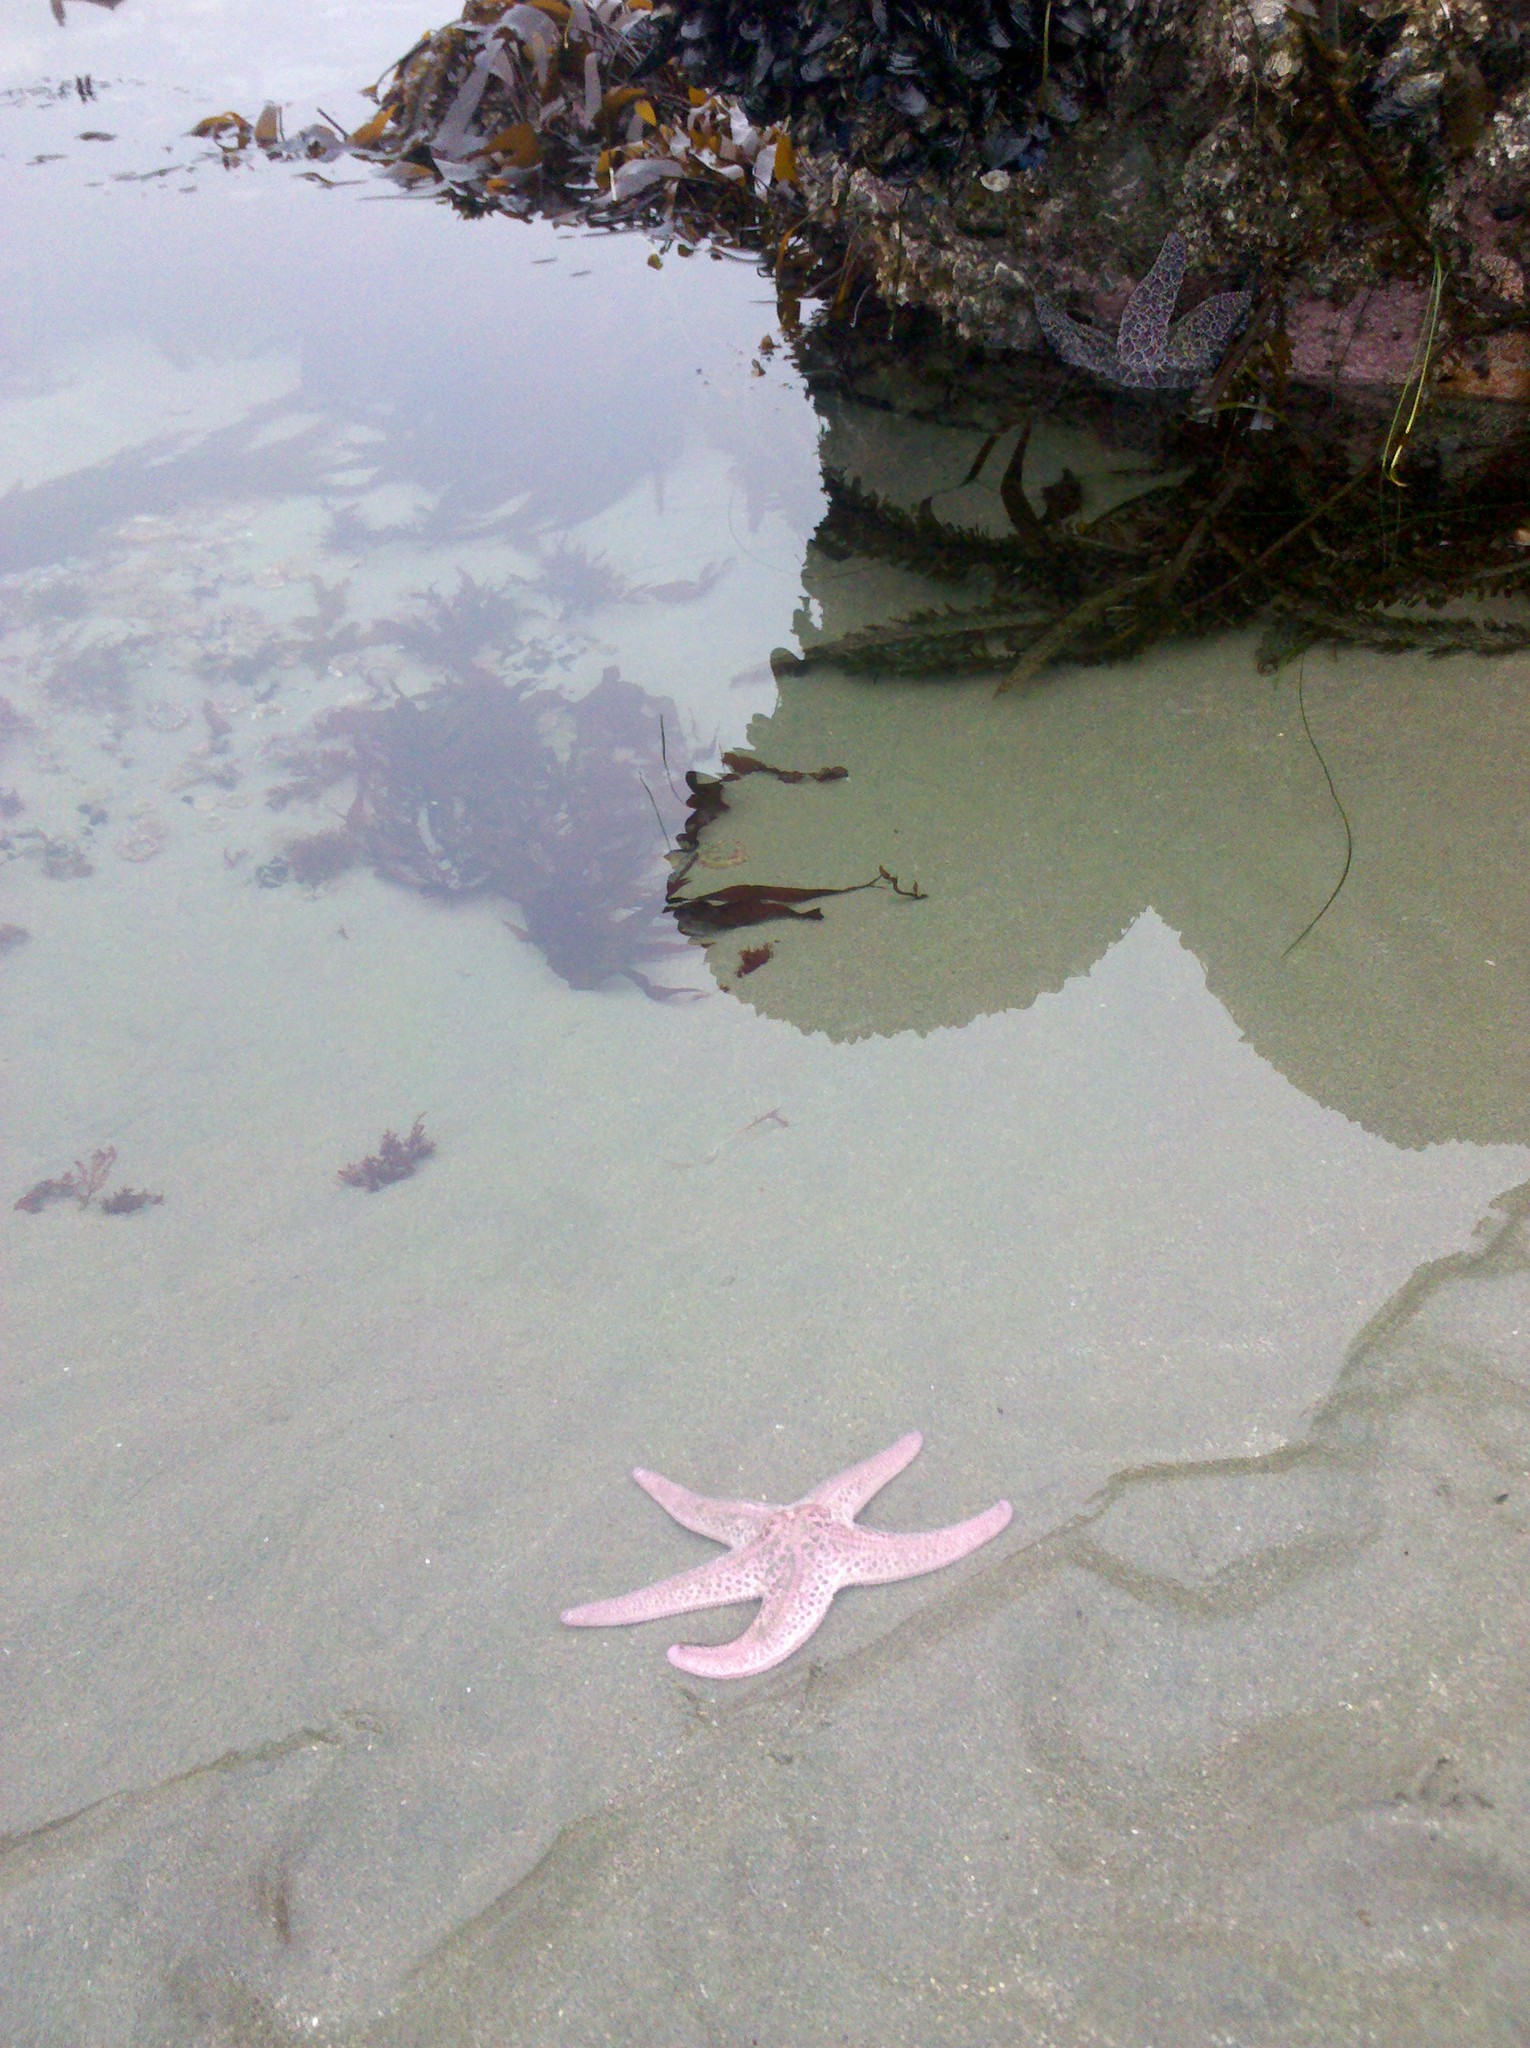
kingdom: Animalia
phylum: Echinodermata
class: Asteroidea
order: Forcipulatida
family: Asteriidae
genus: Pisaster
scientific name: Pisaster brevispinus
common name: Pink stars
